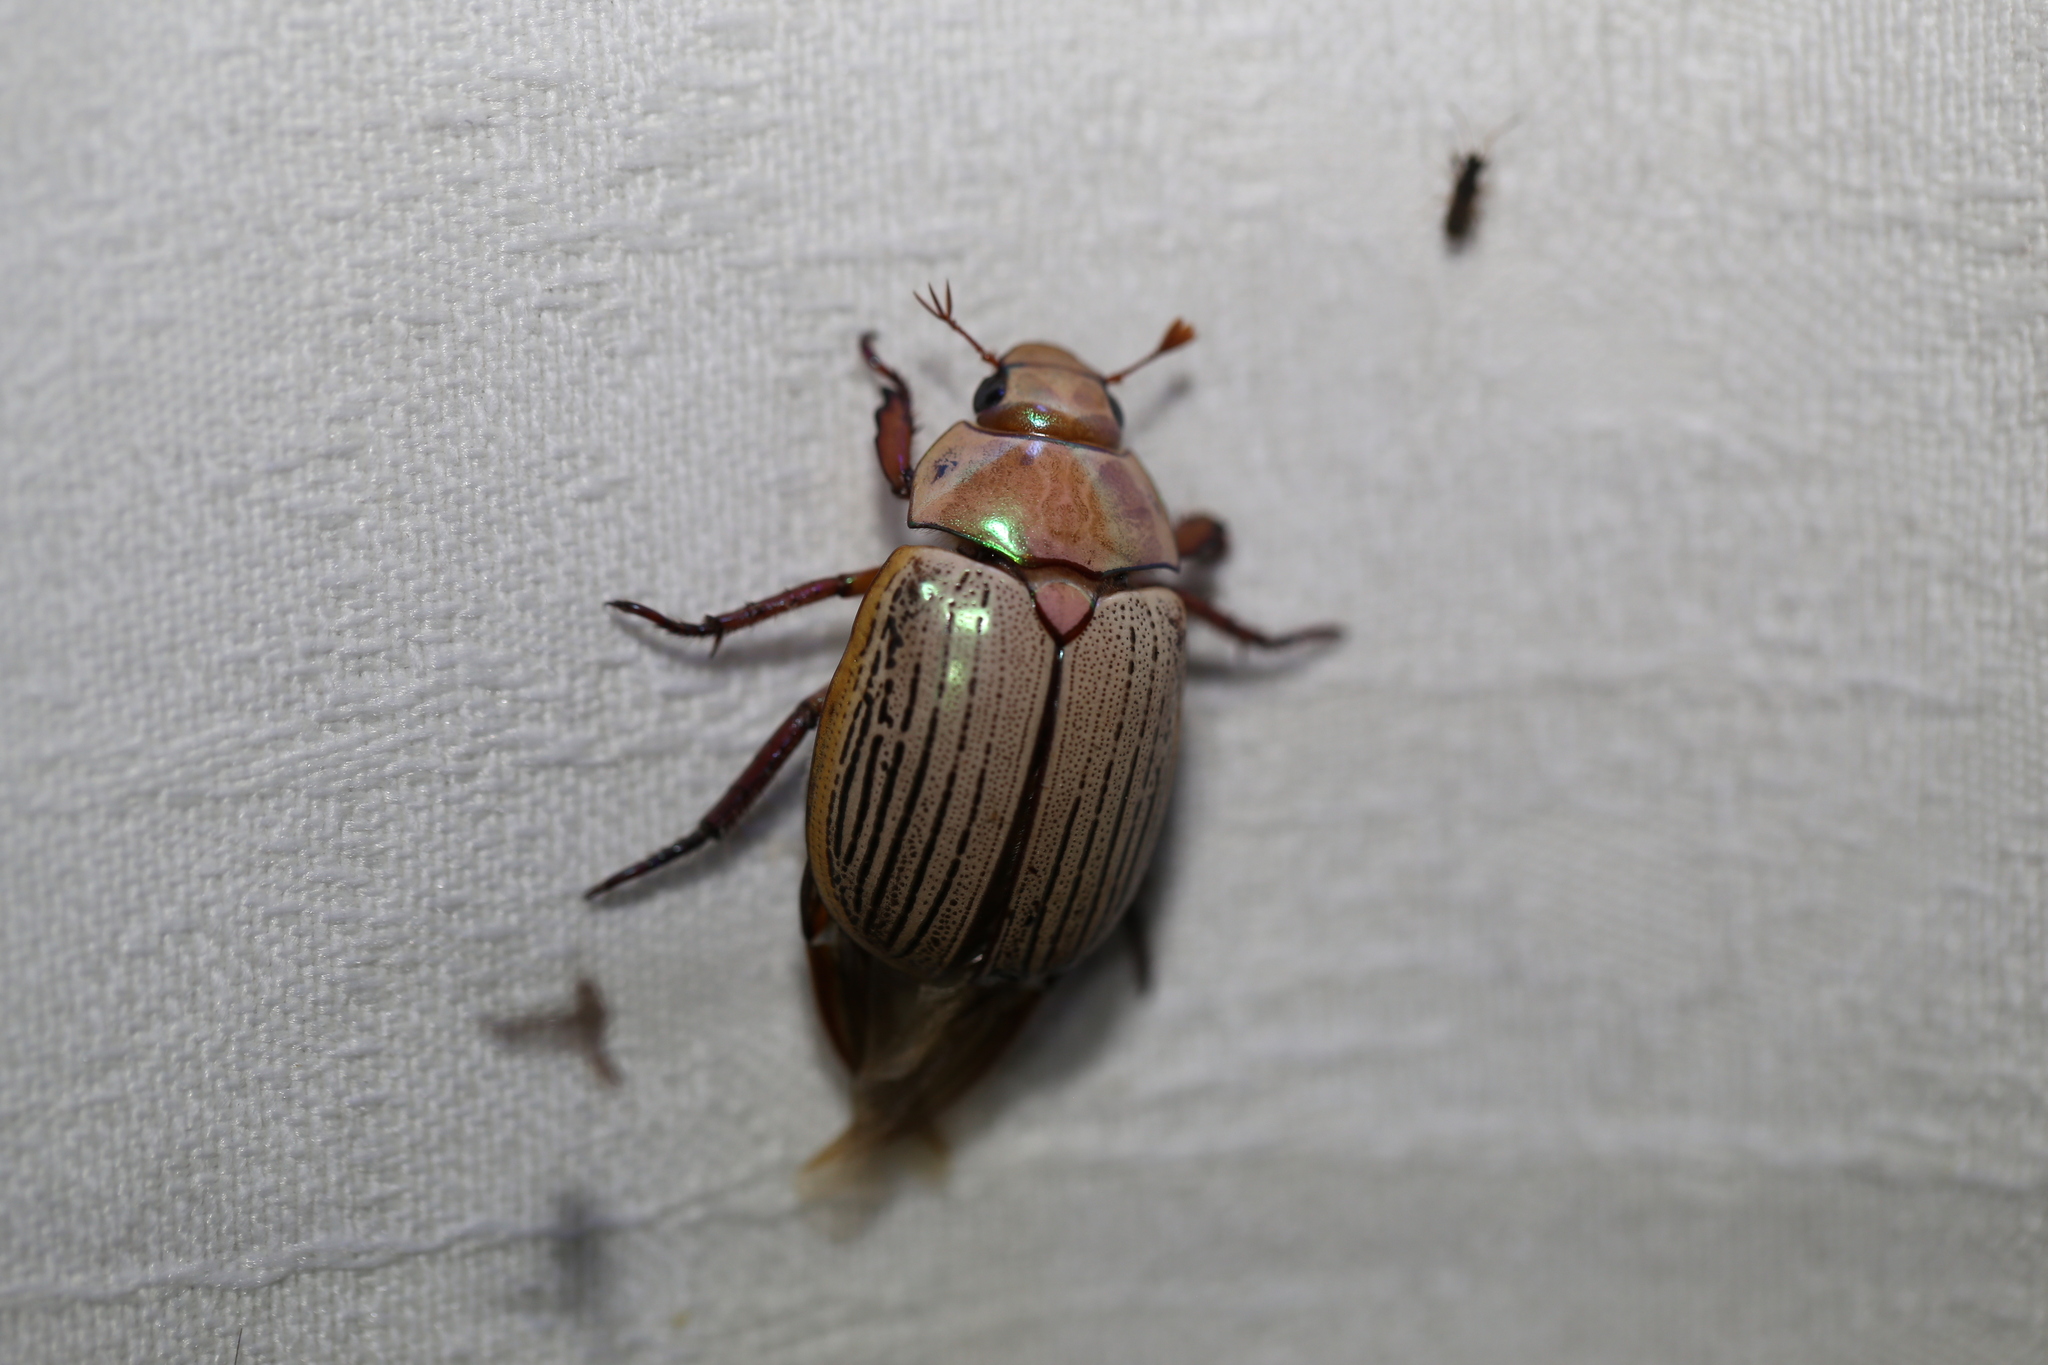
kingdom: Animalia
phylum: Arthropoda
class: Insecta
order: Coleoptera
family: Scarabaeidae
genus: Anoplognathus
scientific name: Anoplognathus boisduvali
